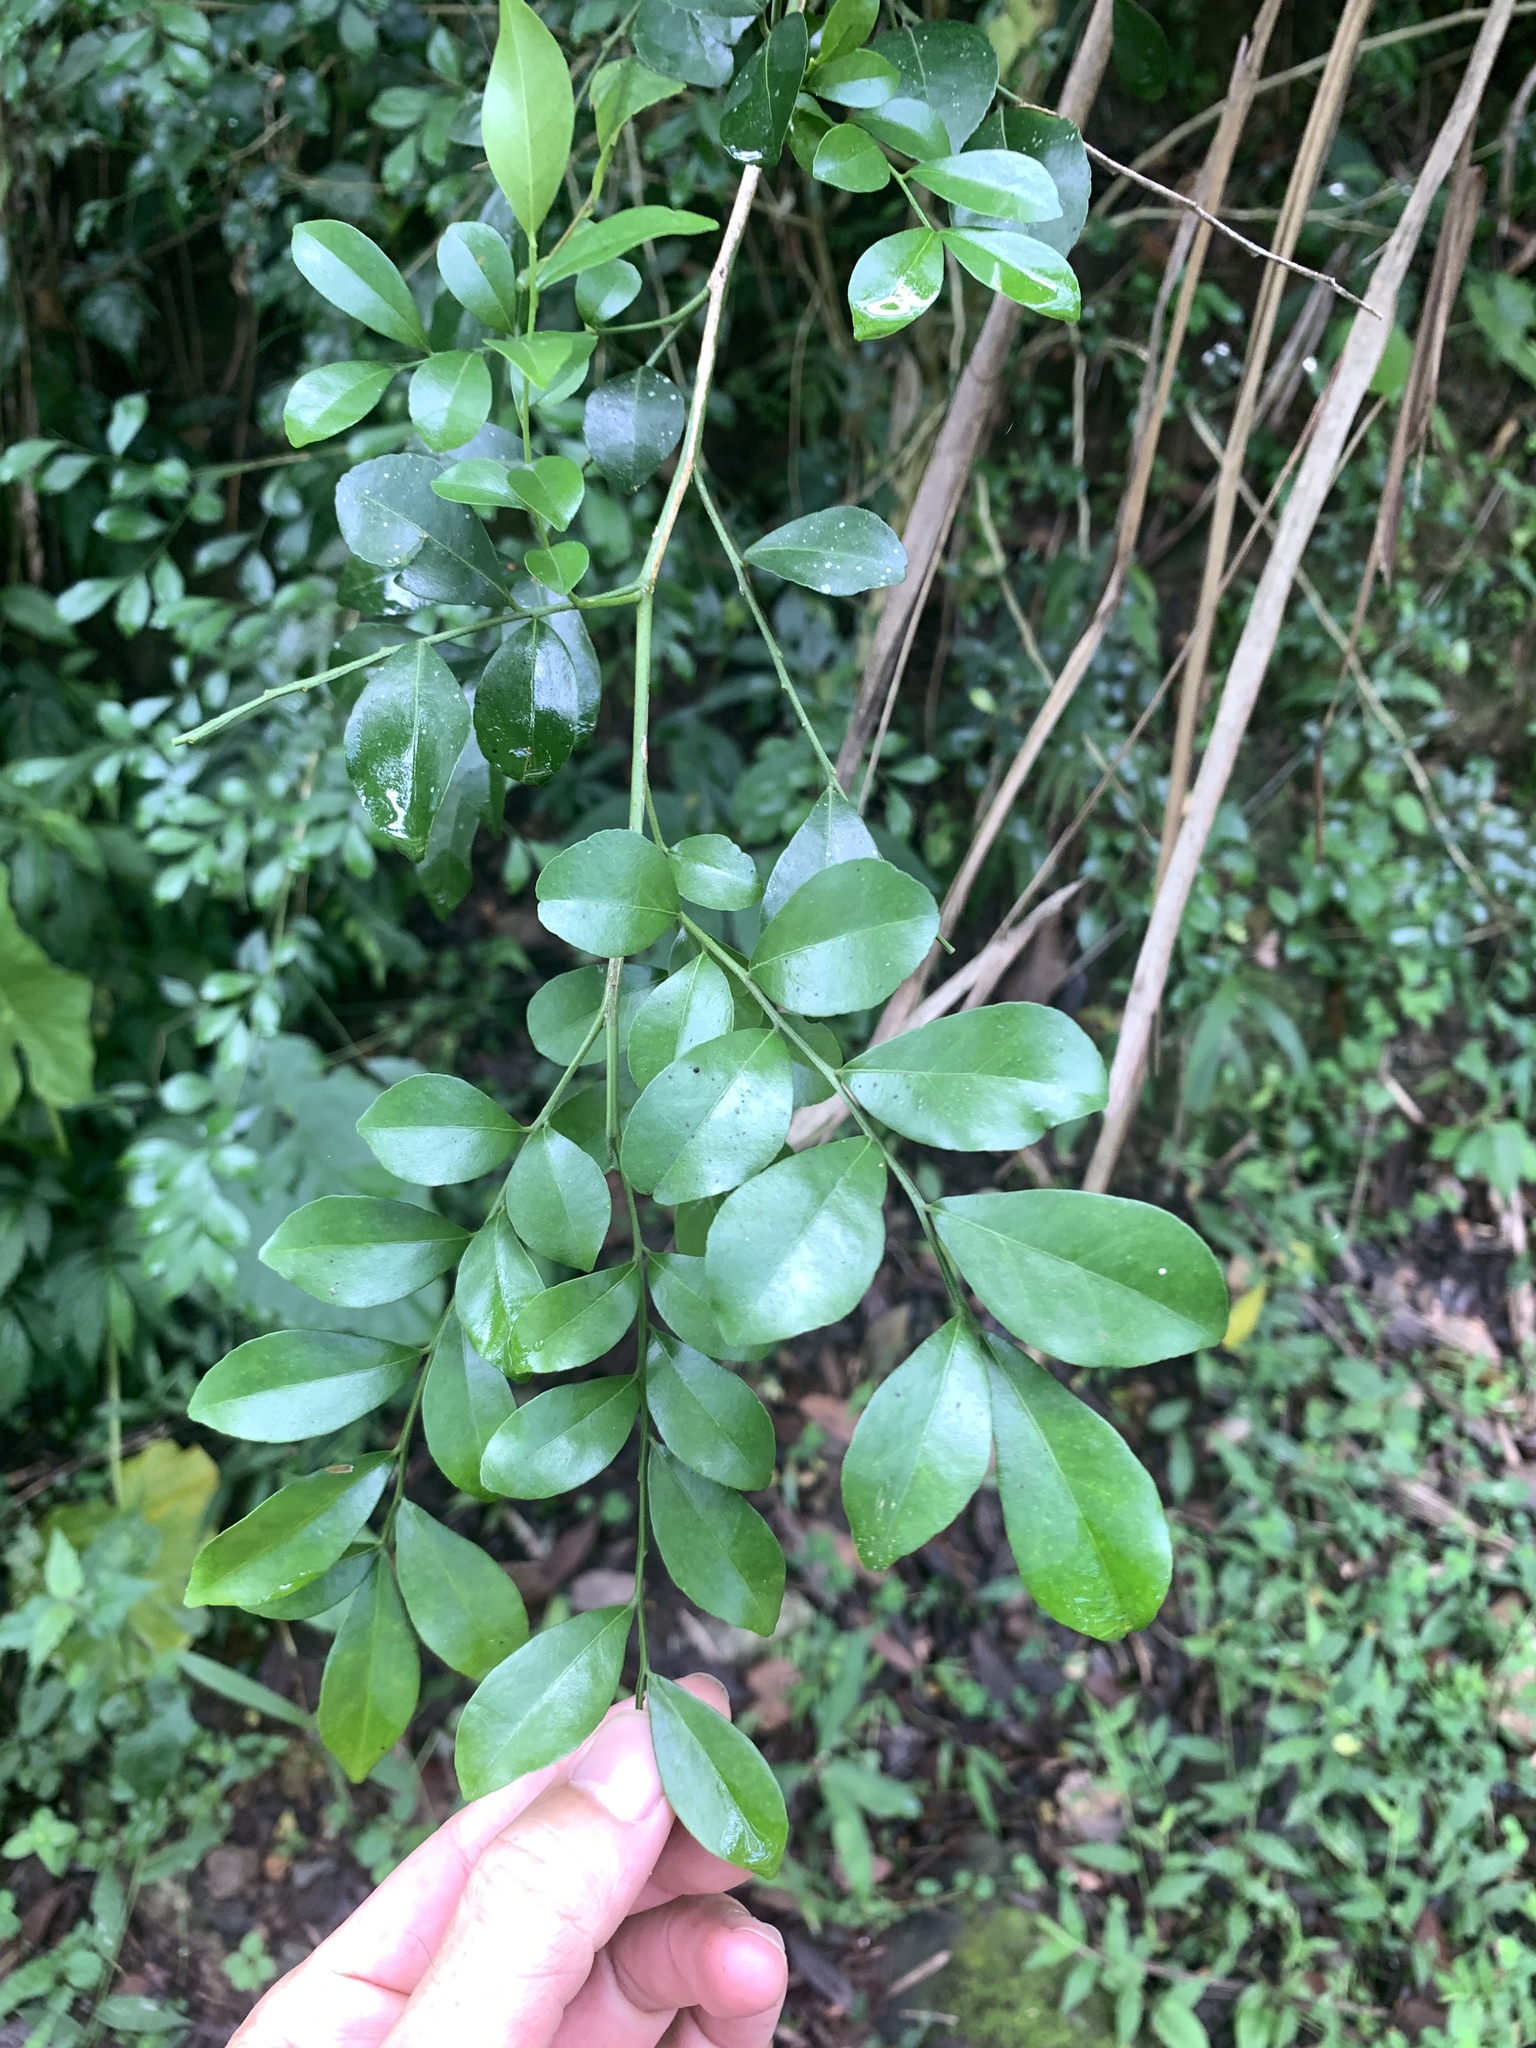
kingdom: Plantae
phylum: Tracheophyta
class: Magnoliopsida
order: Sapindales
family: Rutaceae
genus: Murraya
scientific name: Murraya paniculata
